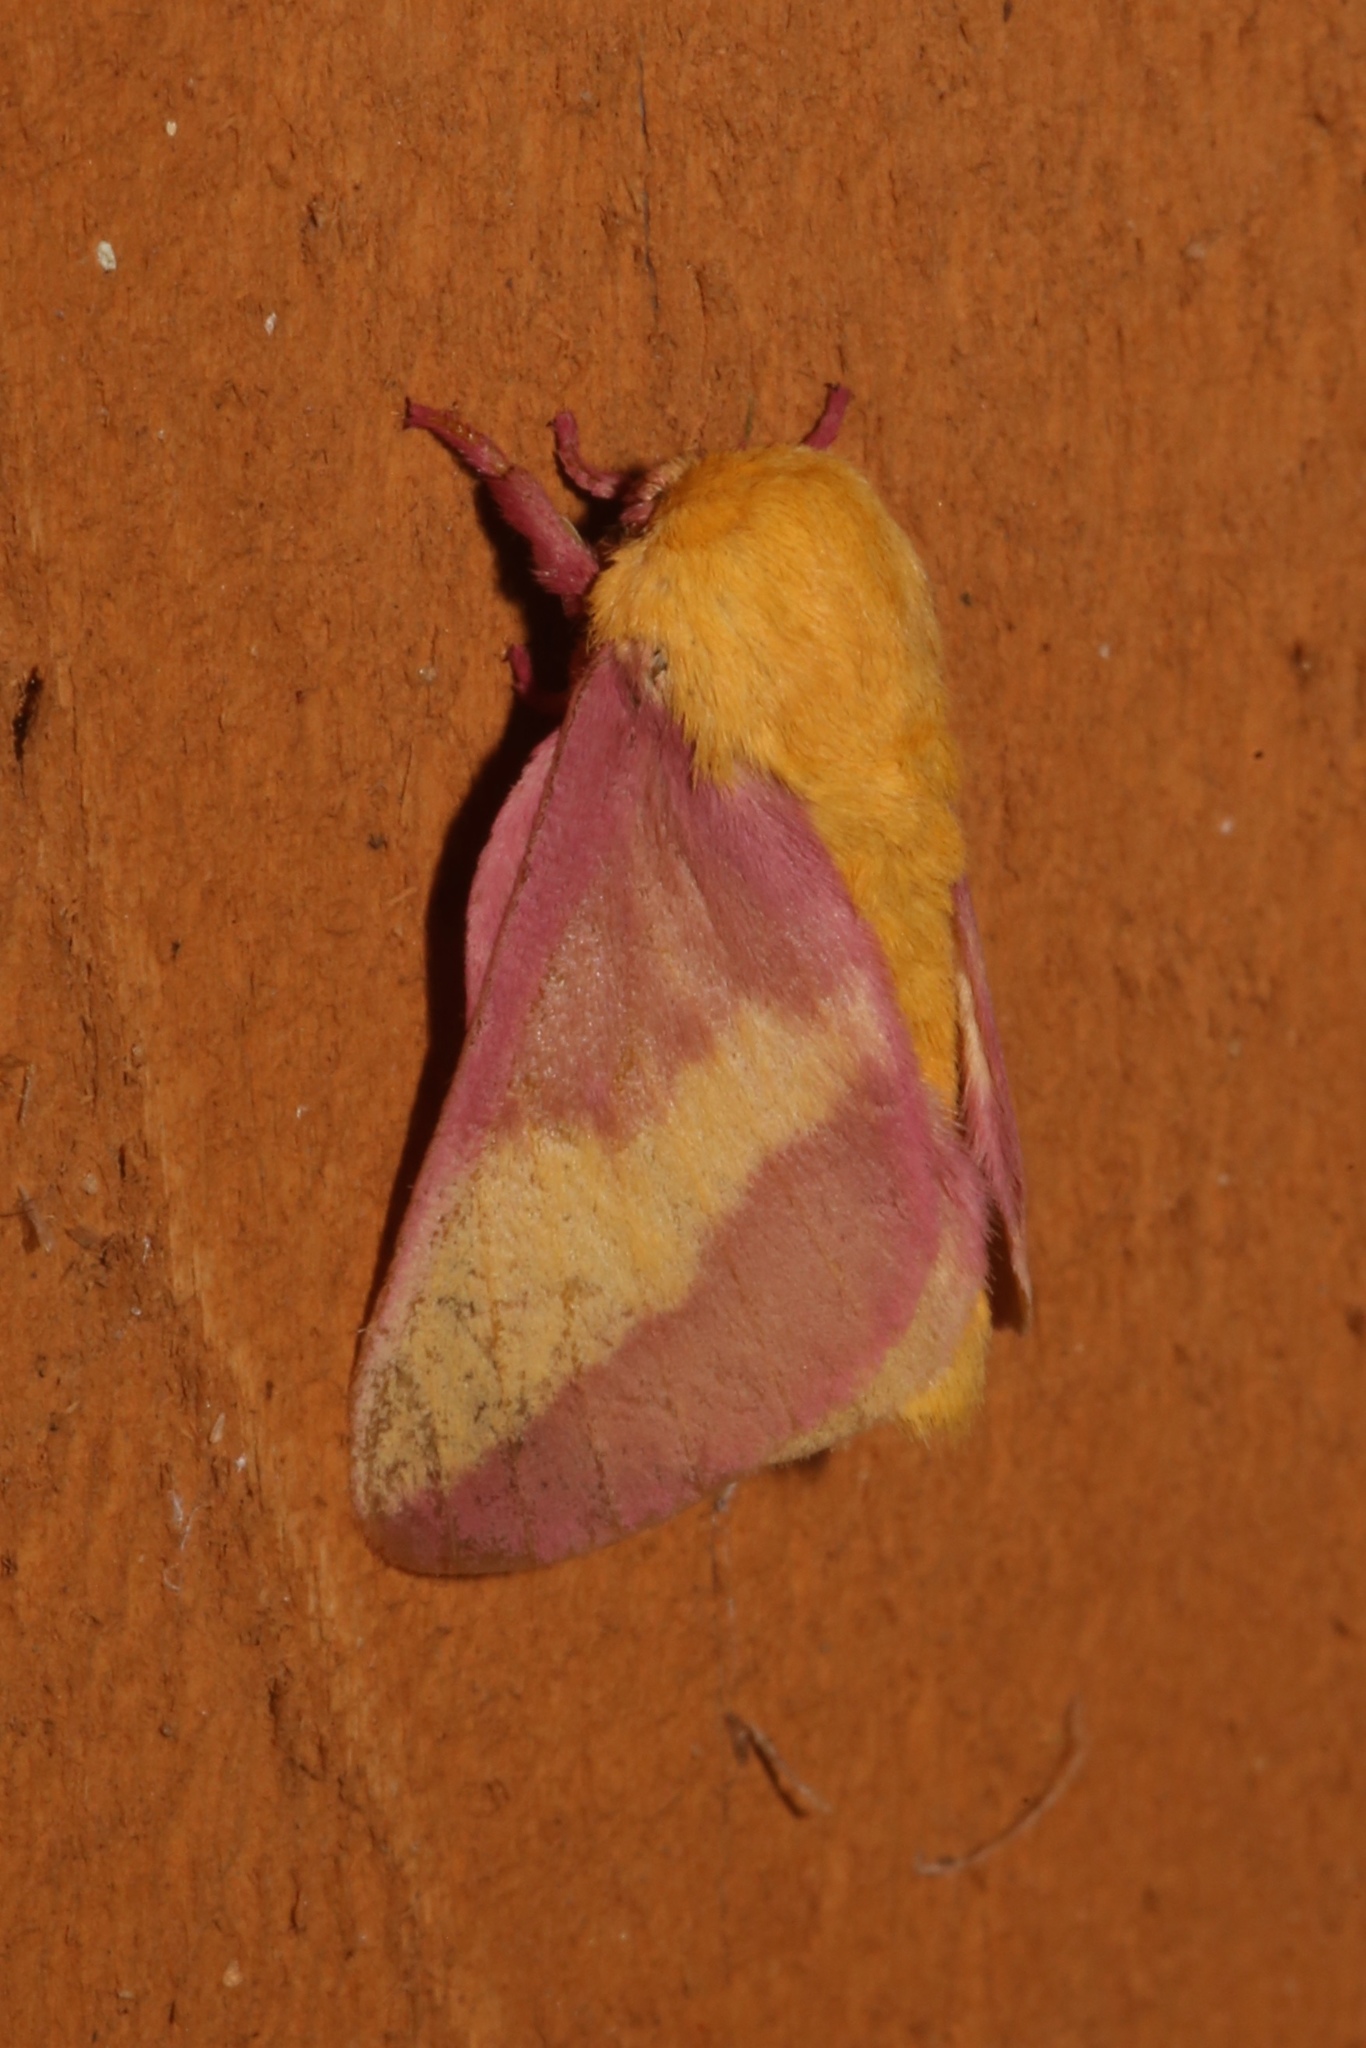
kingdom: Animalia
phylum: Arthropoda
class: Insecta
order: Lepidoptera
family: Saturniidae
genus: Dryocampa
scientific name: Dryocampa rubicunda
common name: Rosy maple moth
